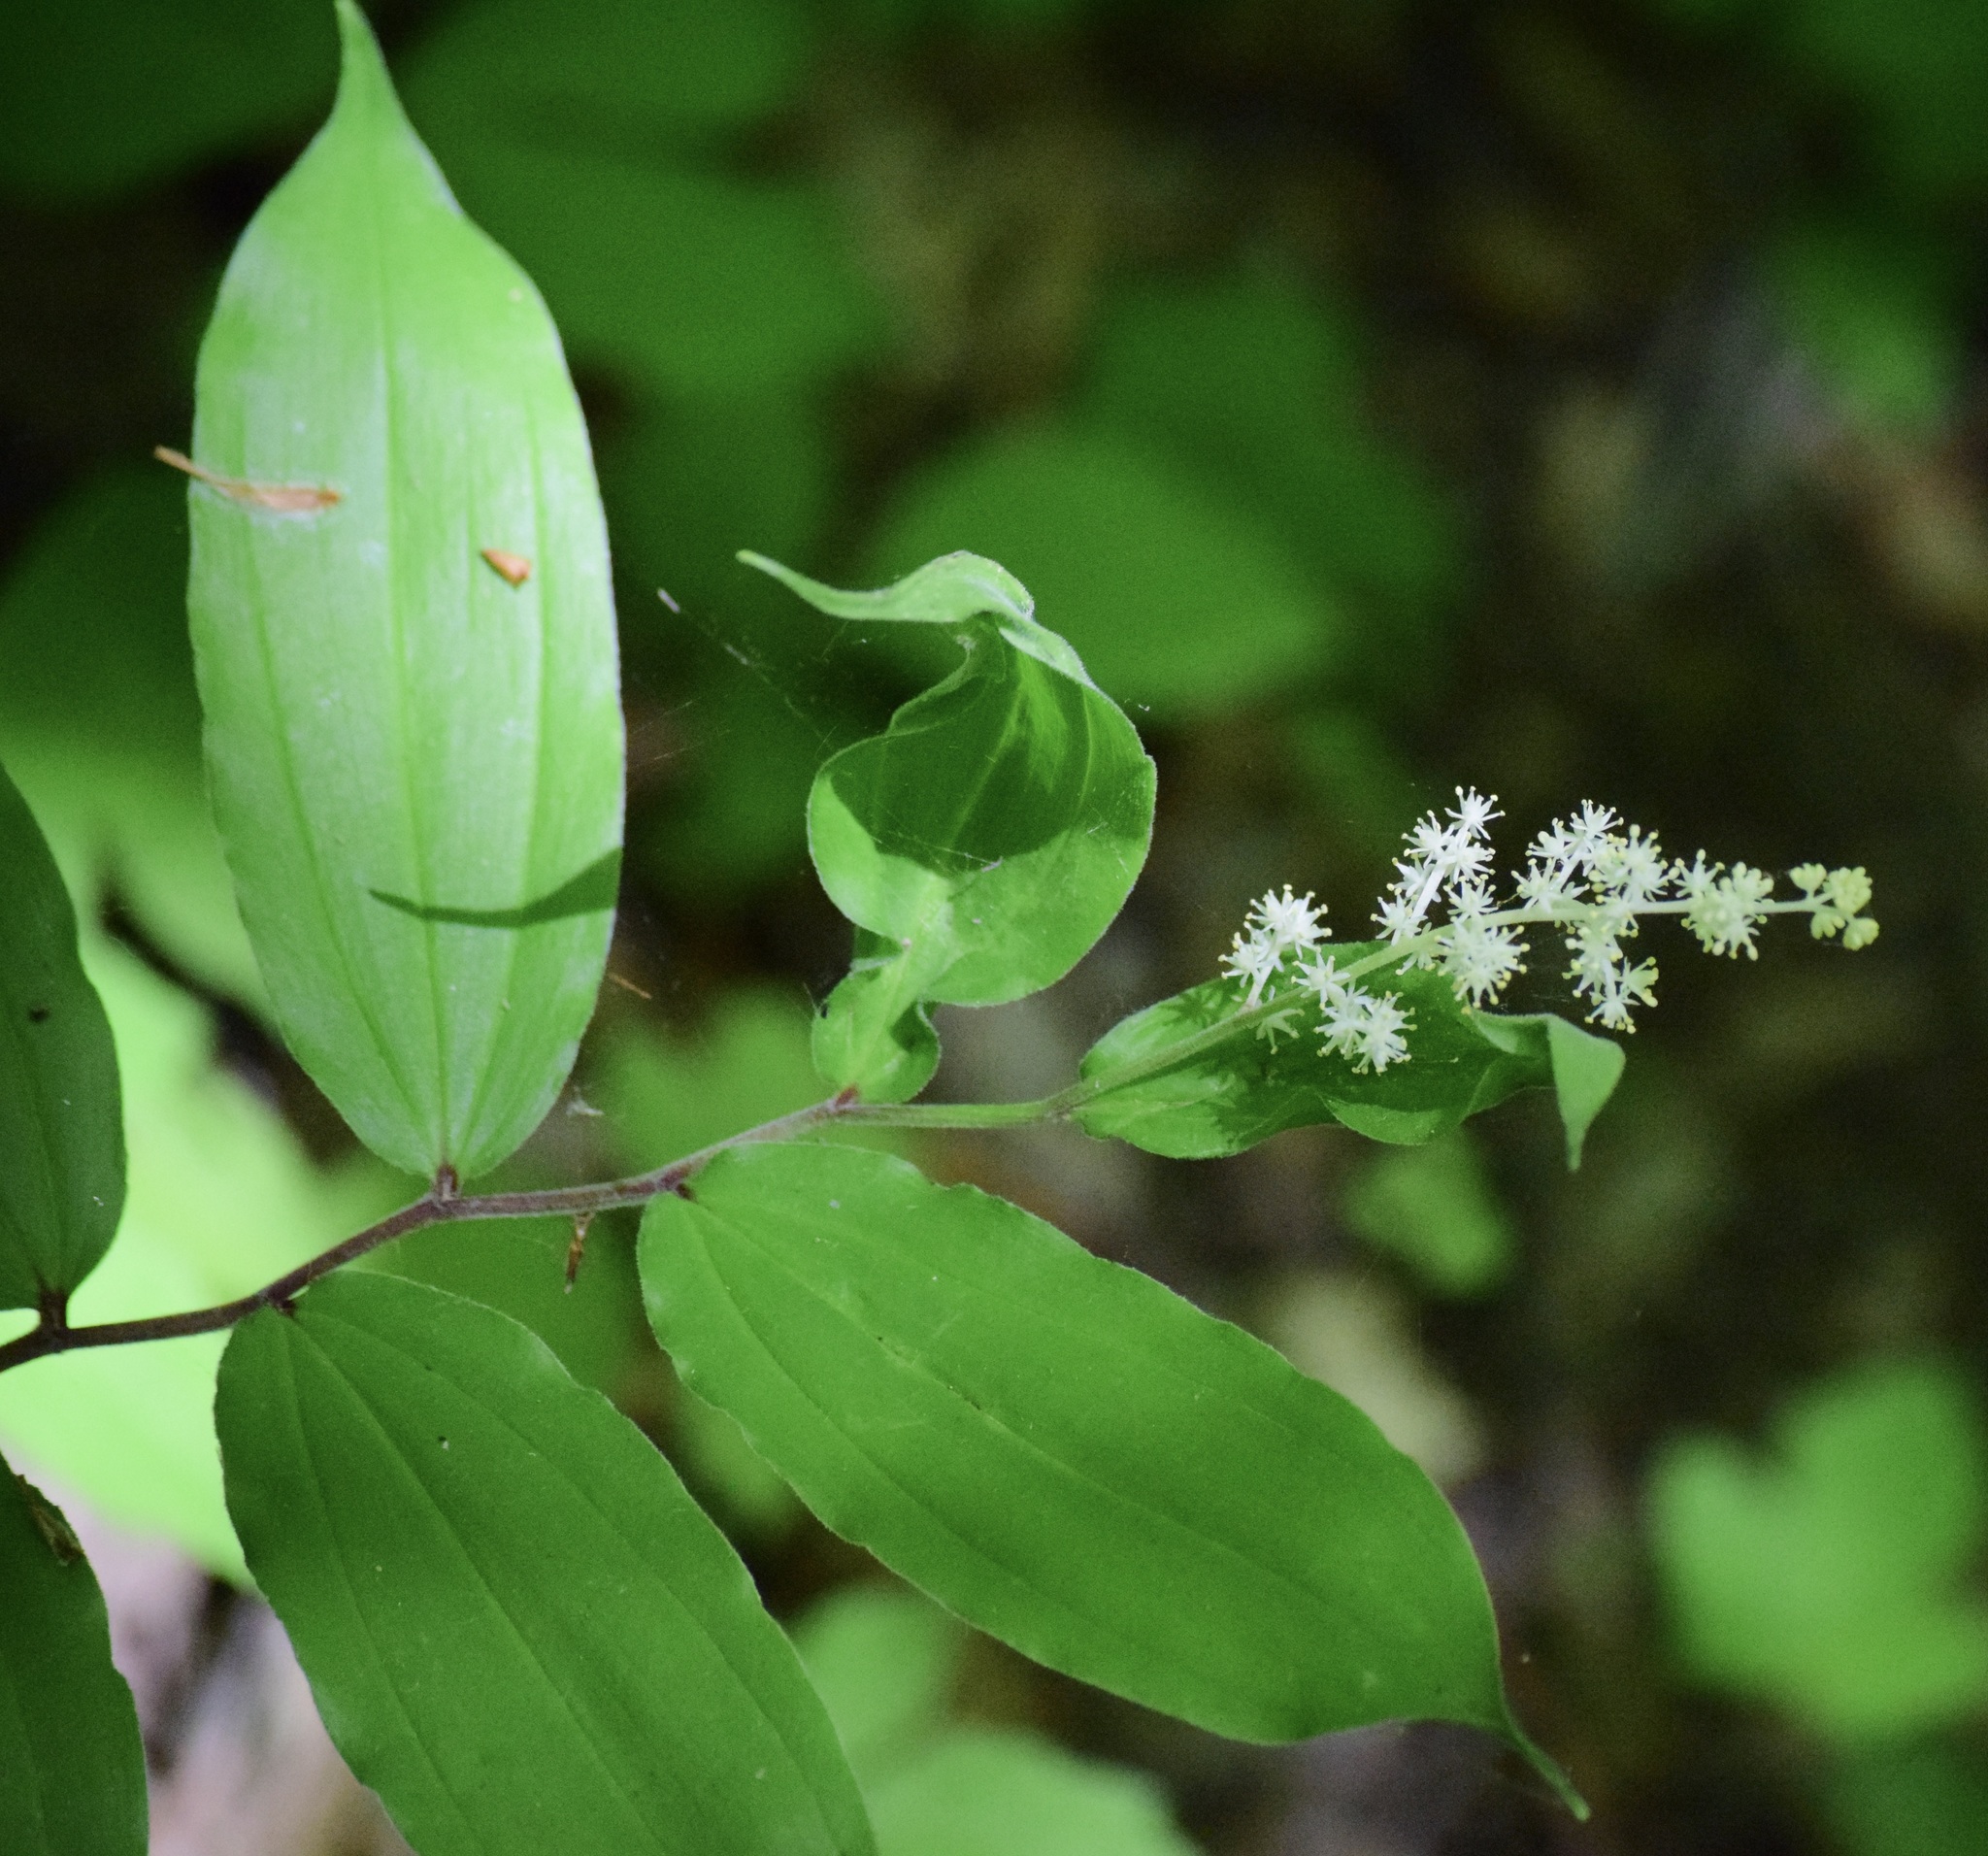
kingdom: Plantae
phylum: Tracheophyta
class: Liliopsida
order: Asparagales
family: Asparagaceae
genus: Maianthemum
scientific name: Maianthemum racemosum
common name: False spikenard
